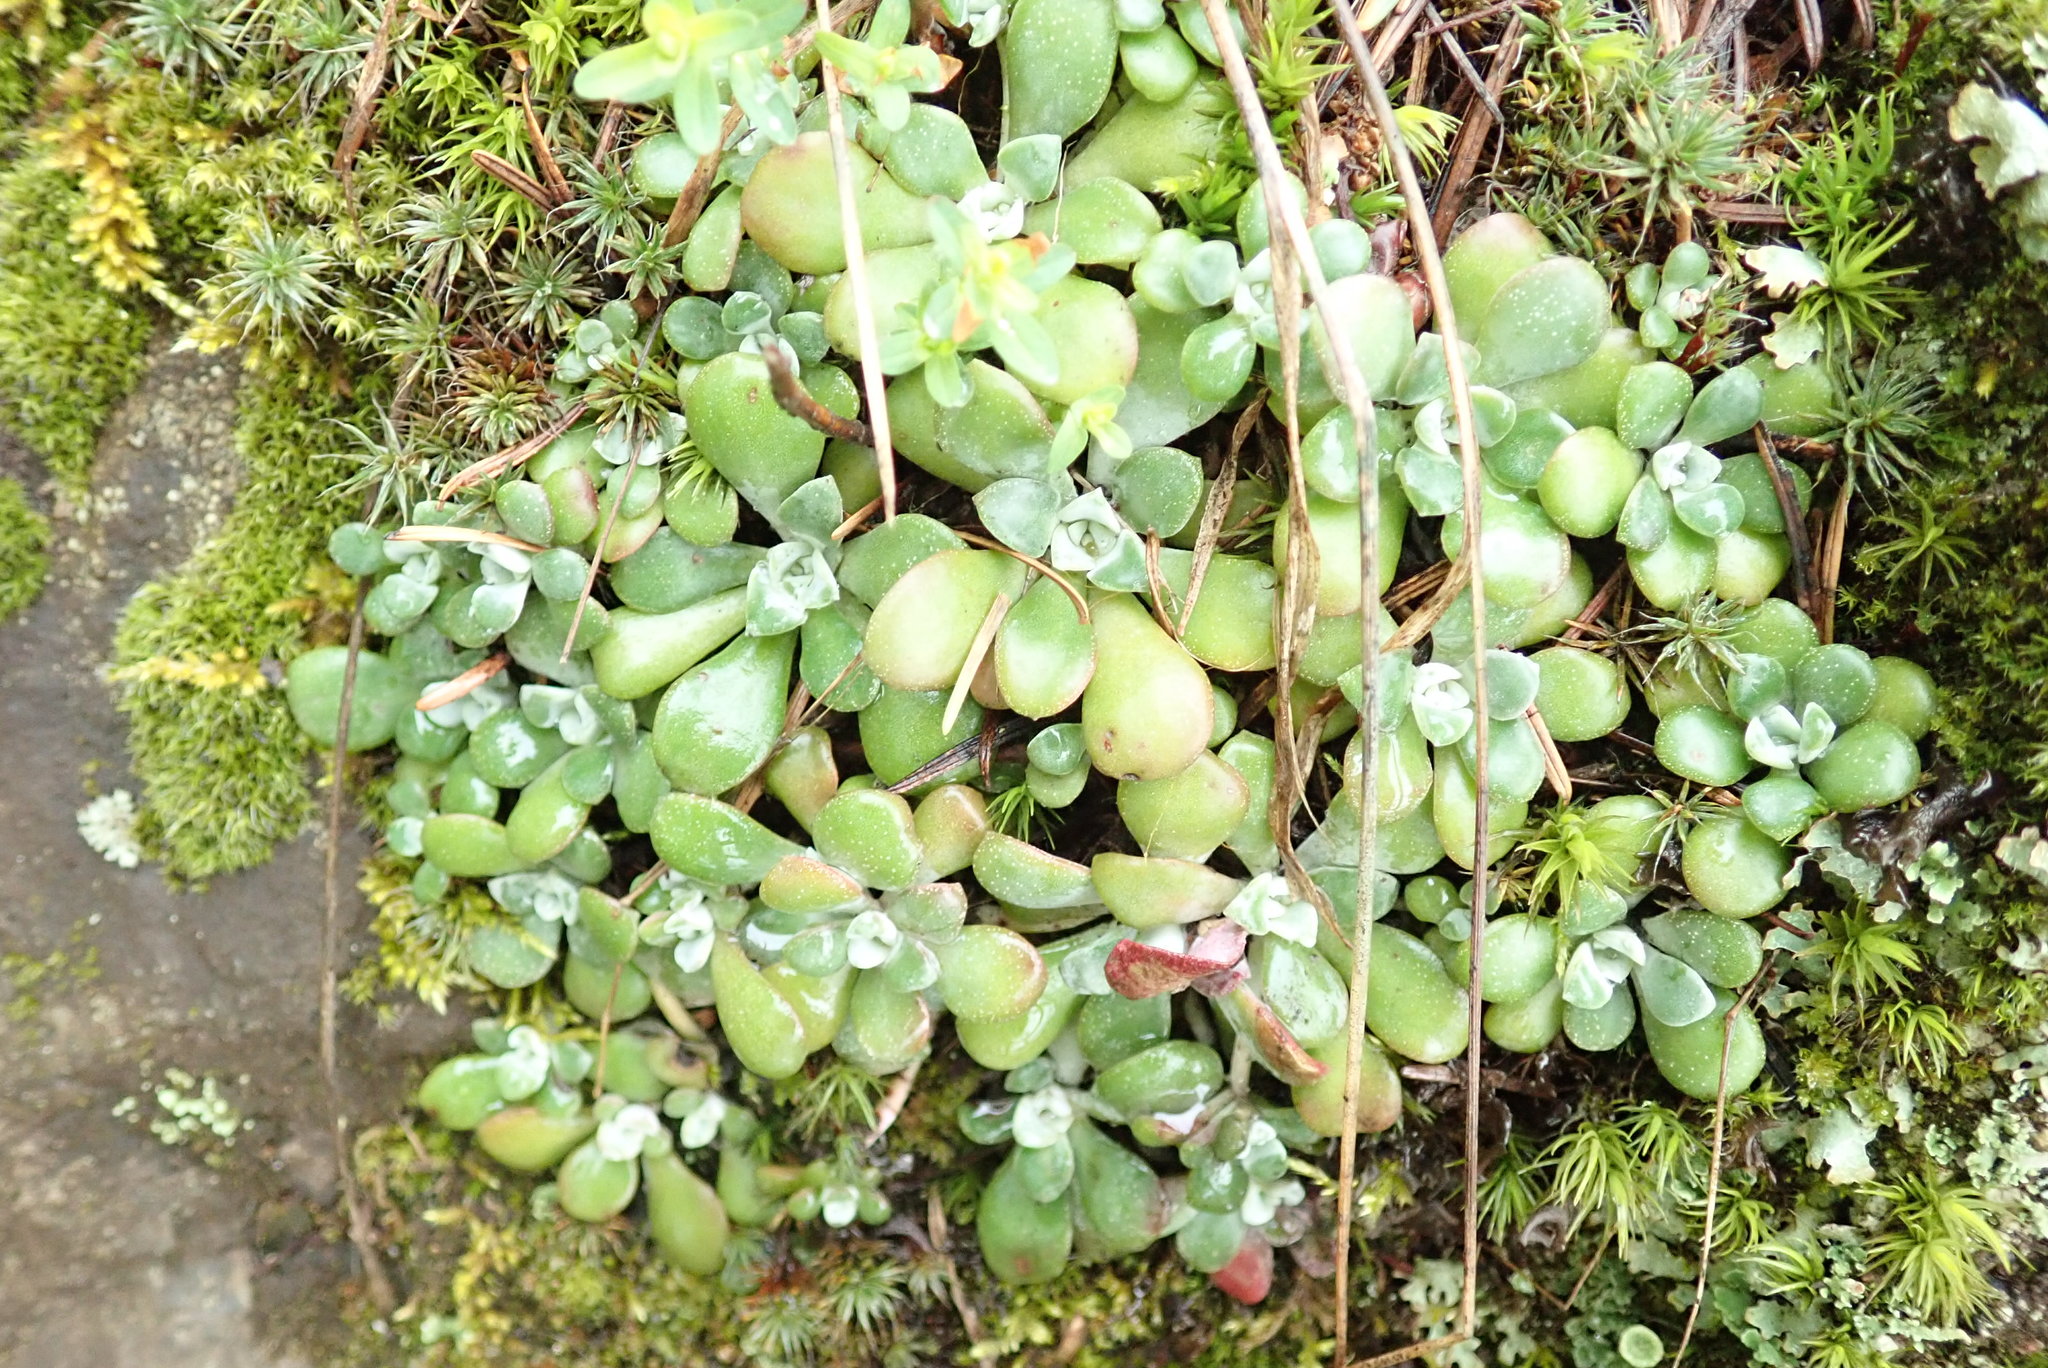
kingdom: Plantae
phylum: Tracheophyta
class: Magnoliopsida
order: Saxifragales
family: Crassulaceae
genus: Sedum
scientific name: Sedum spathulifolium
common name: Colorado stonecrop
